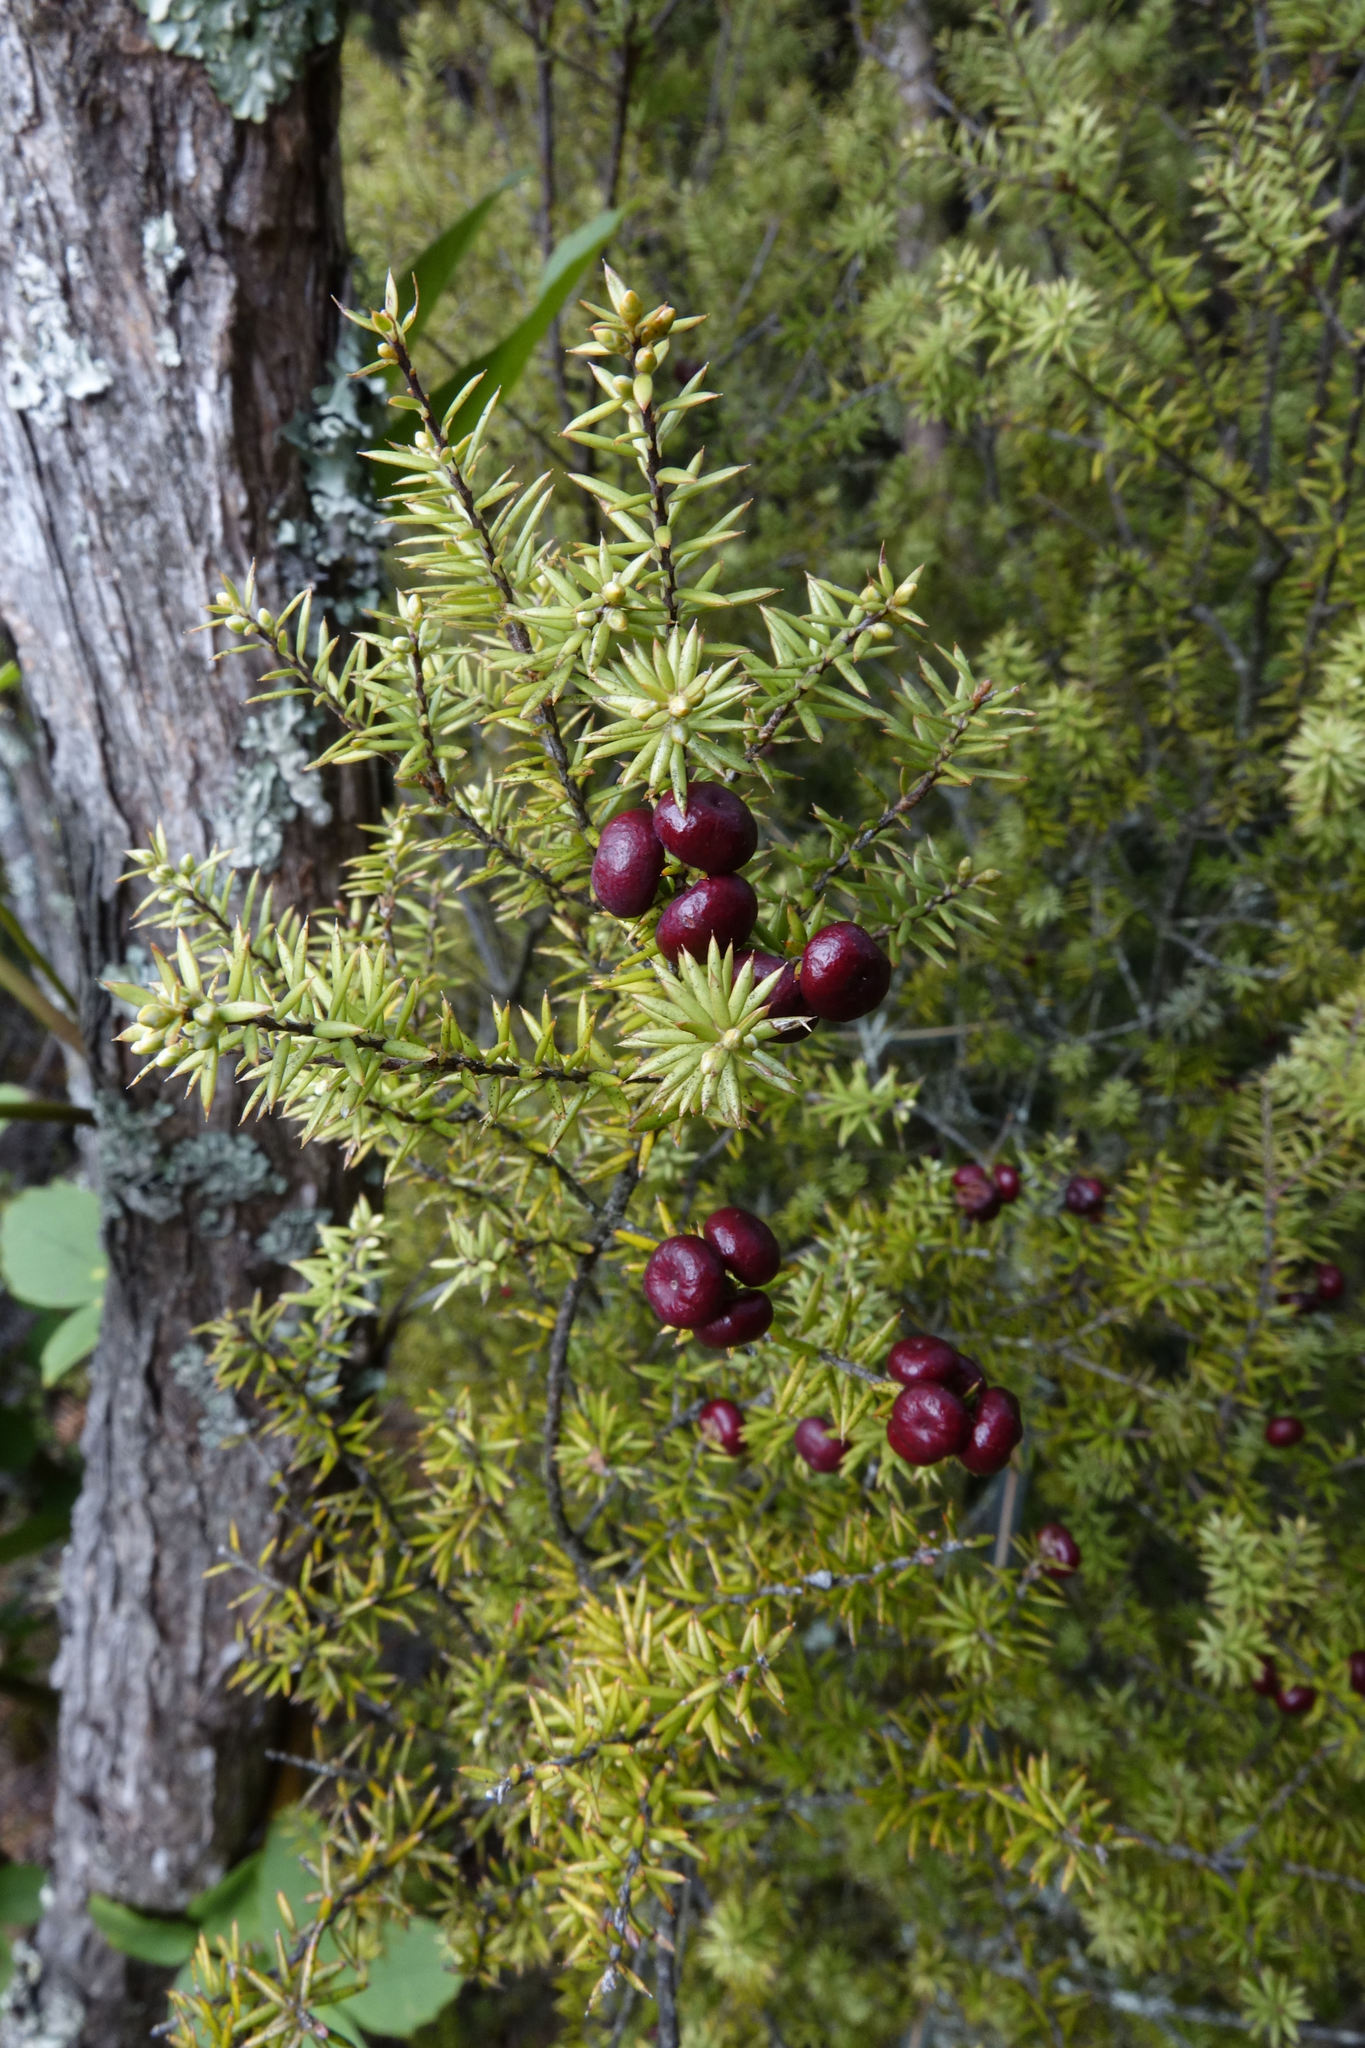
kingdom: Plantae
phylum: Tracheophyta
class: Magnoliopsida
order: Ericales
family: Ericaceae
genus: Leptecophylla
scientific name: Leptecophylla juniperina
